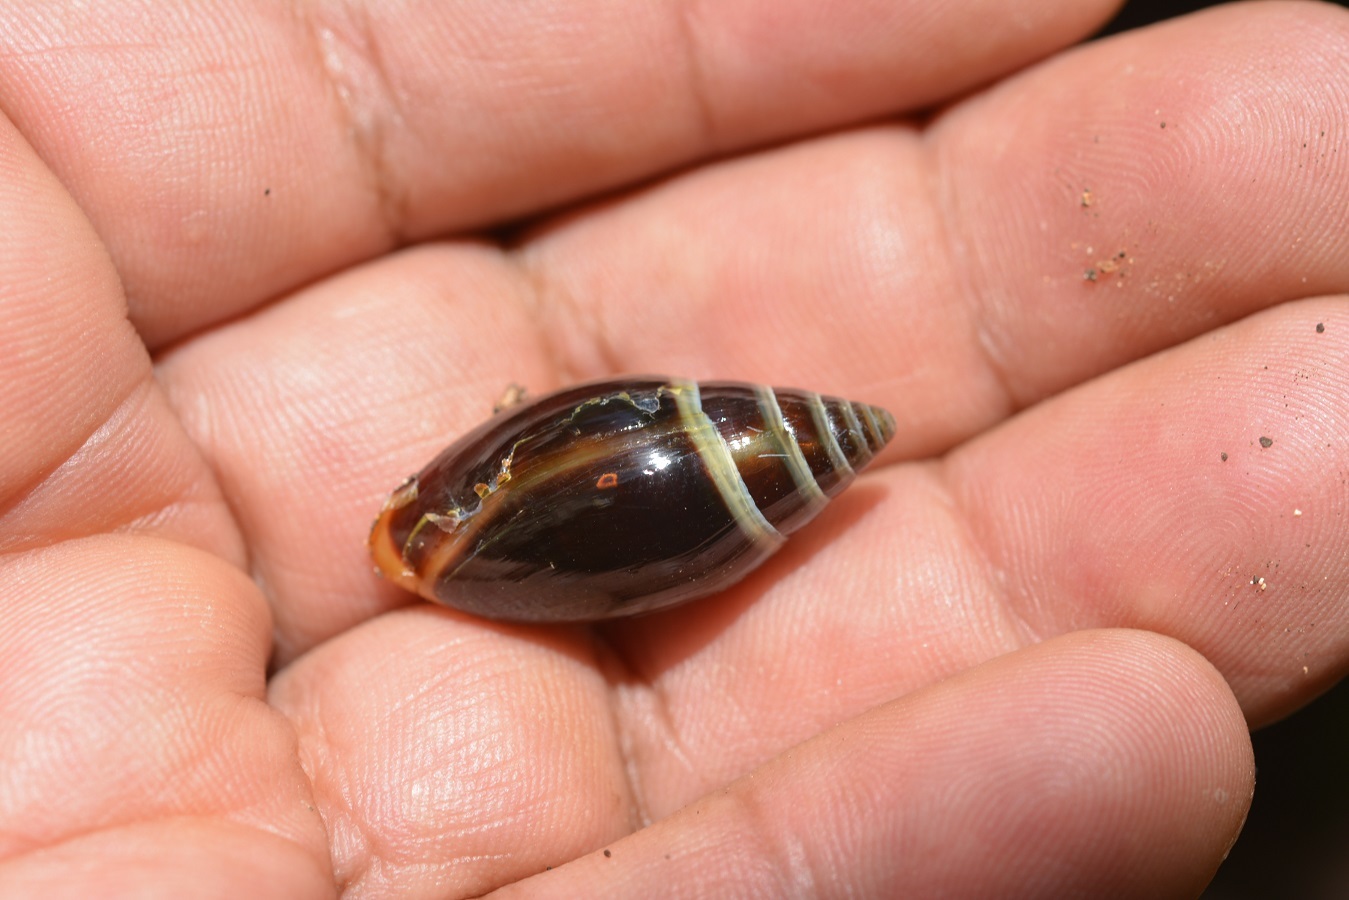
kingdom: Animalia
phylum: Mollusca
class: Gastropoda
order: Stylommatophora
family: Spiraxidae
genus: Streptostyla
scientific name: Streptostyla nigricans
